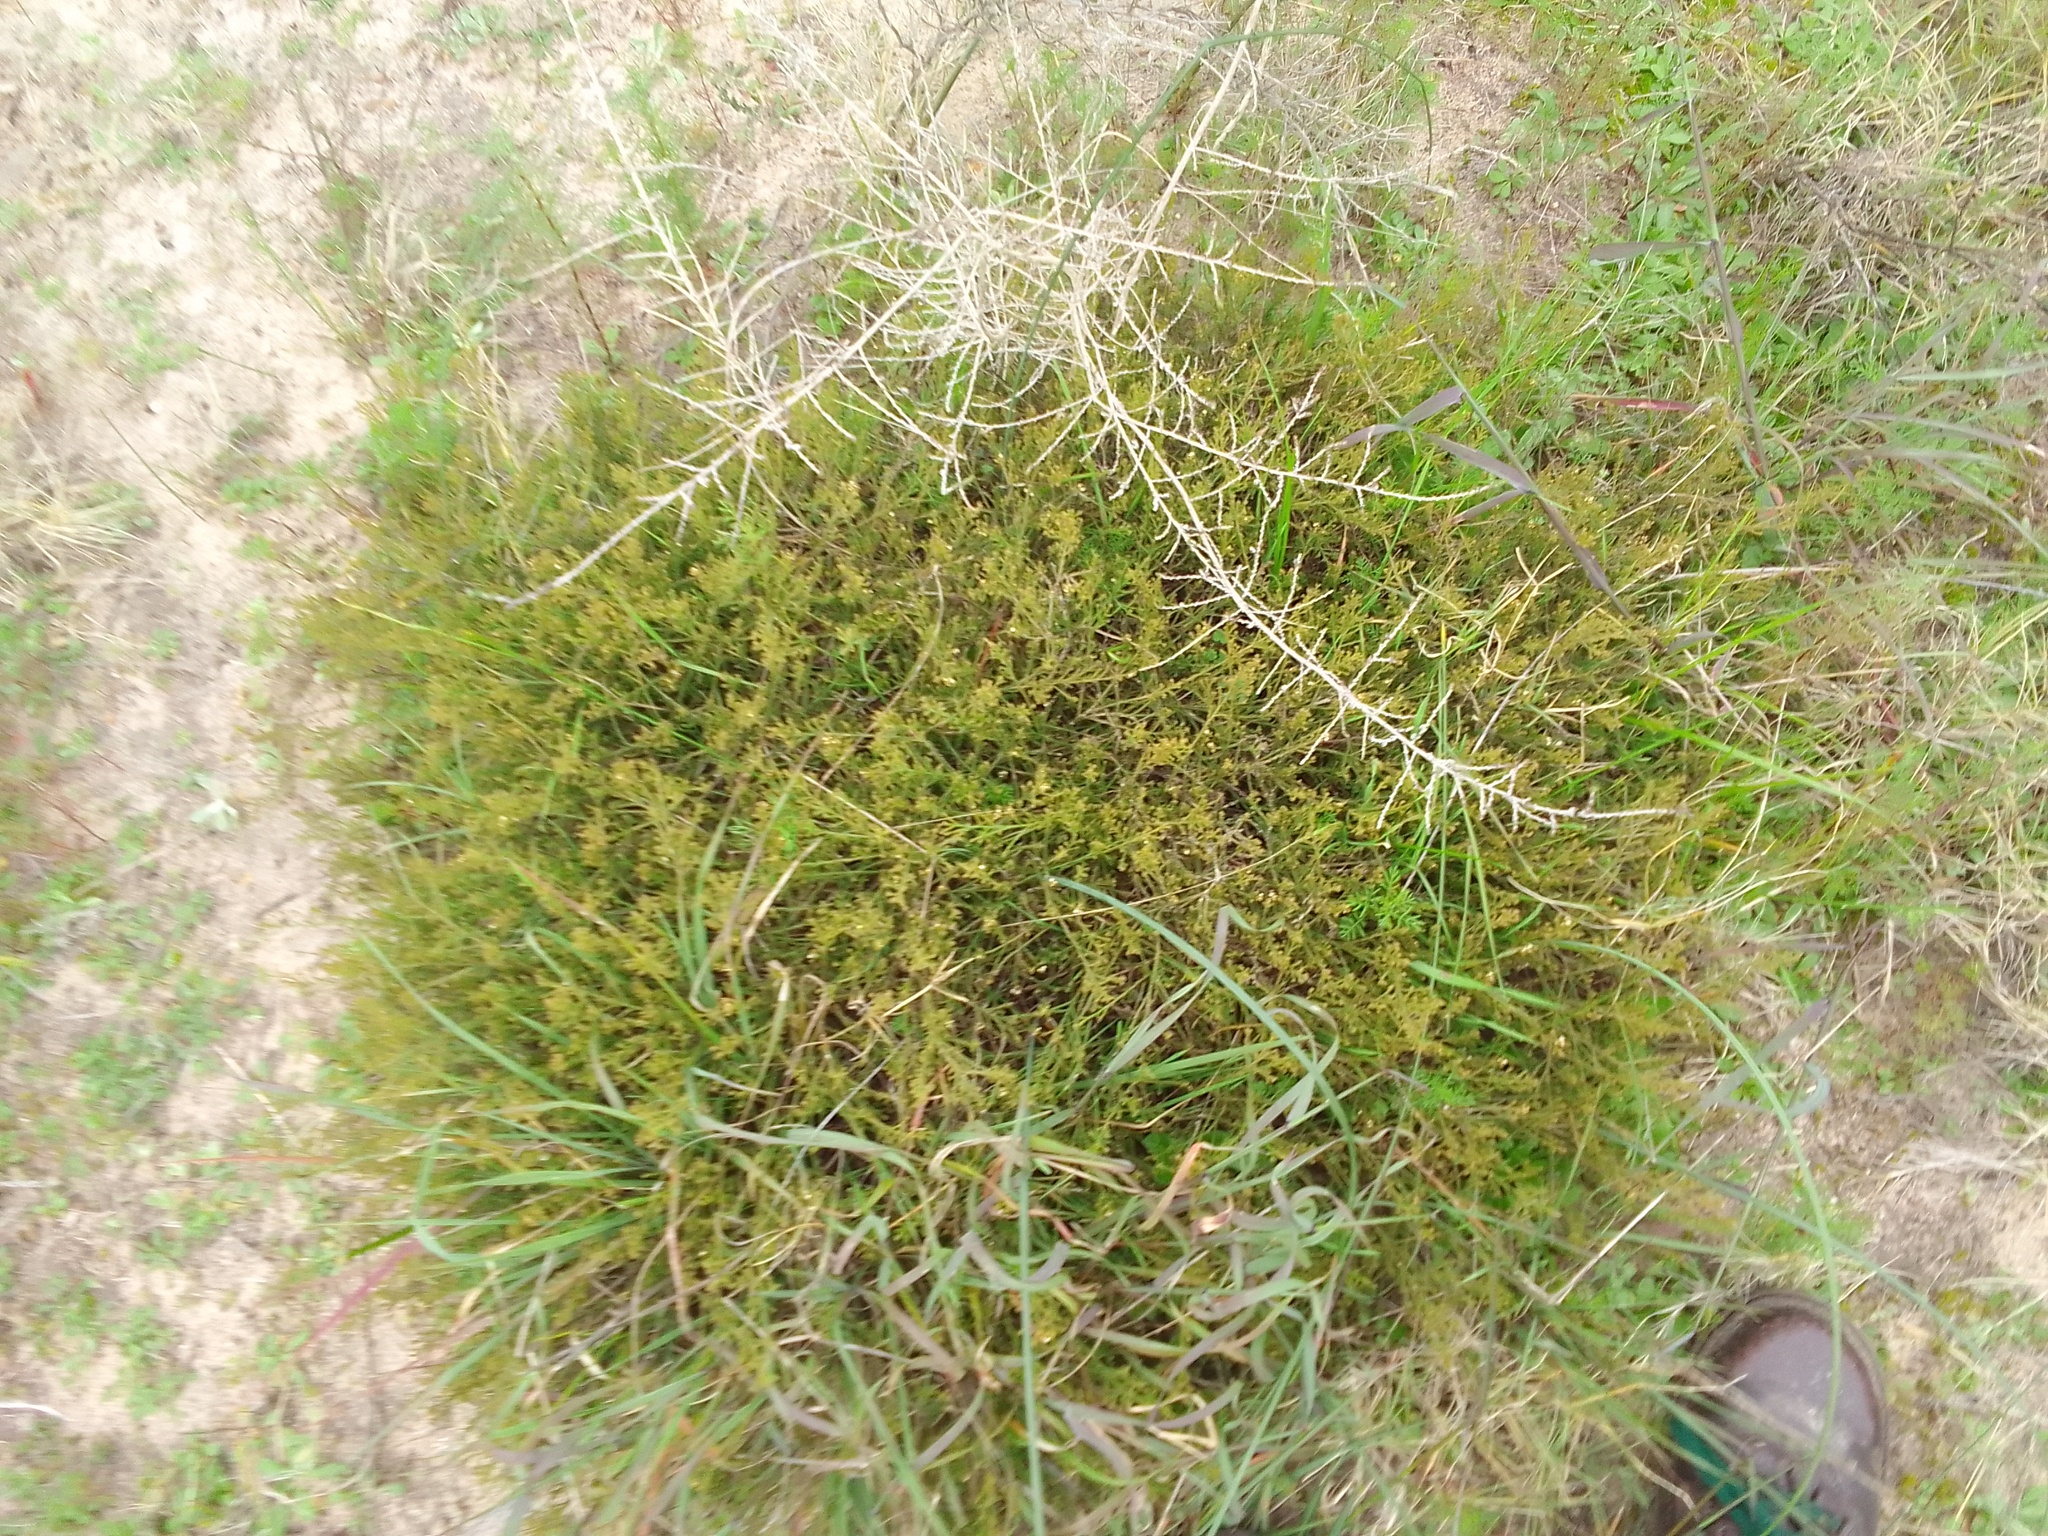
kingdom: Plantae
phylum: Tracheophyta
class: Magnoliopsida
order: Santalales
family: Thesiaceae
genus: Thesium
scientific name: Thesium micromeria
